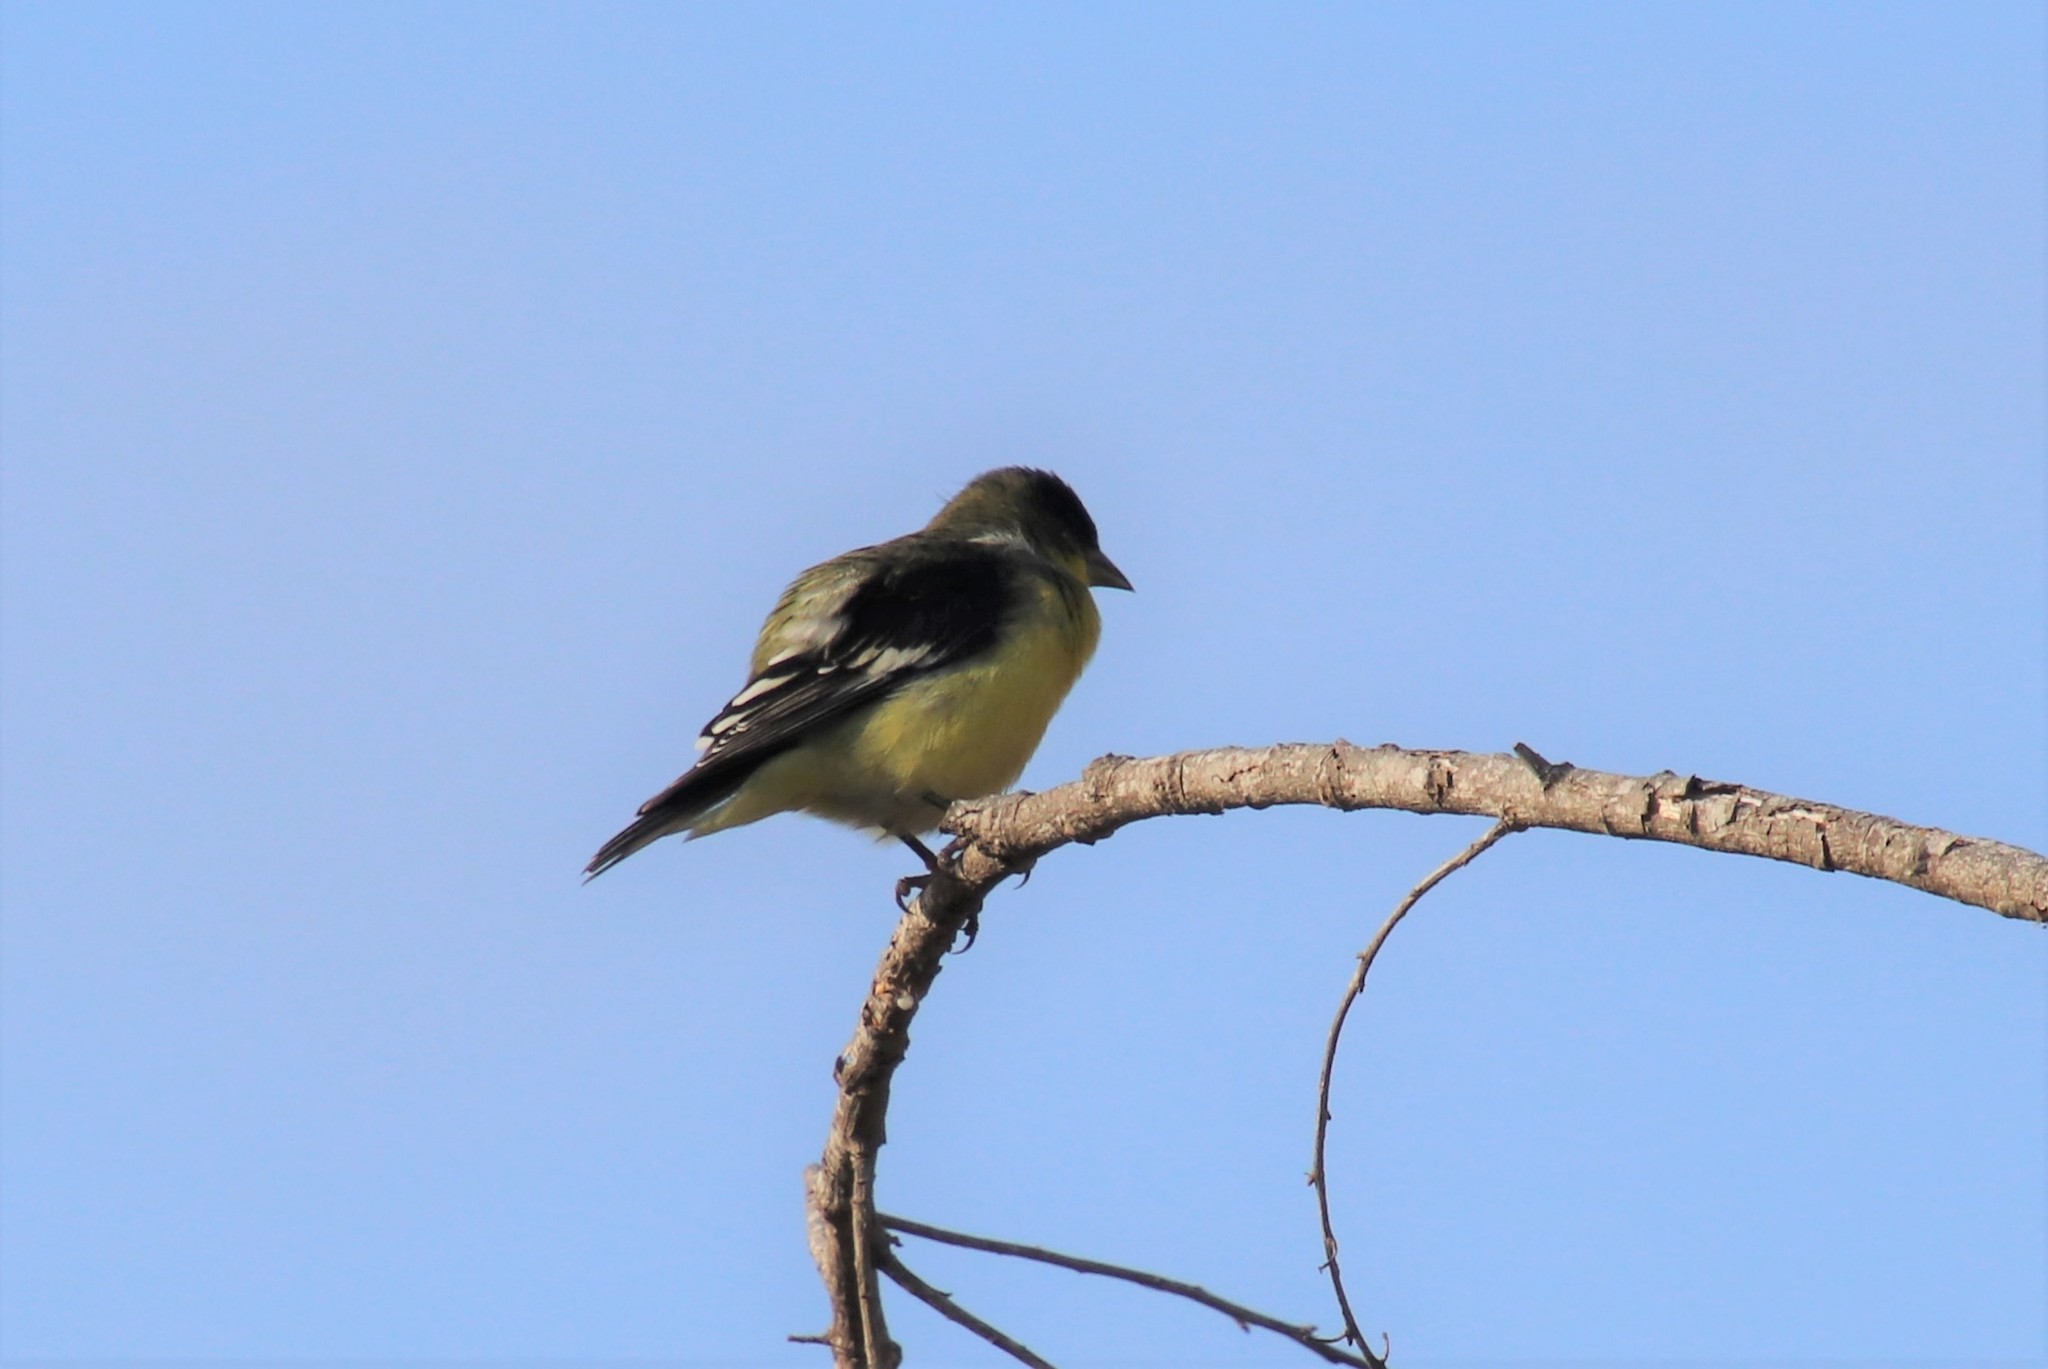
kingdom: Animalia
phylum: Chordata
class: Aves
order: Passeriformes
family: Fringillidae
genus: Spinus
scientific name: Spinus psaltria
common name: Lesser goldfinch
